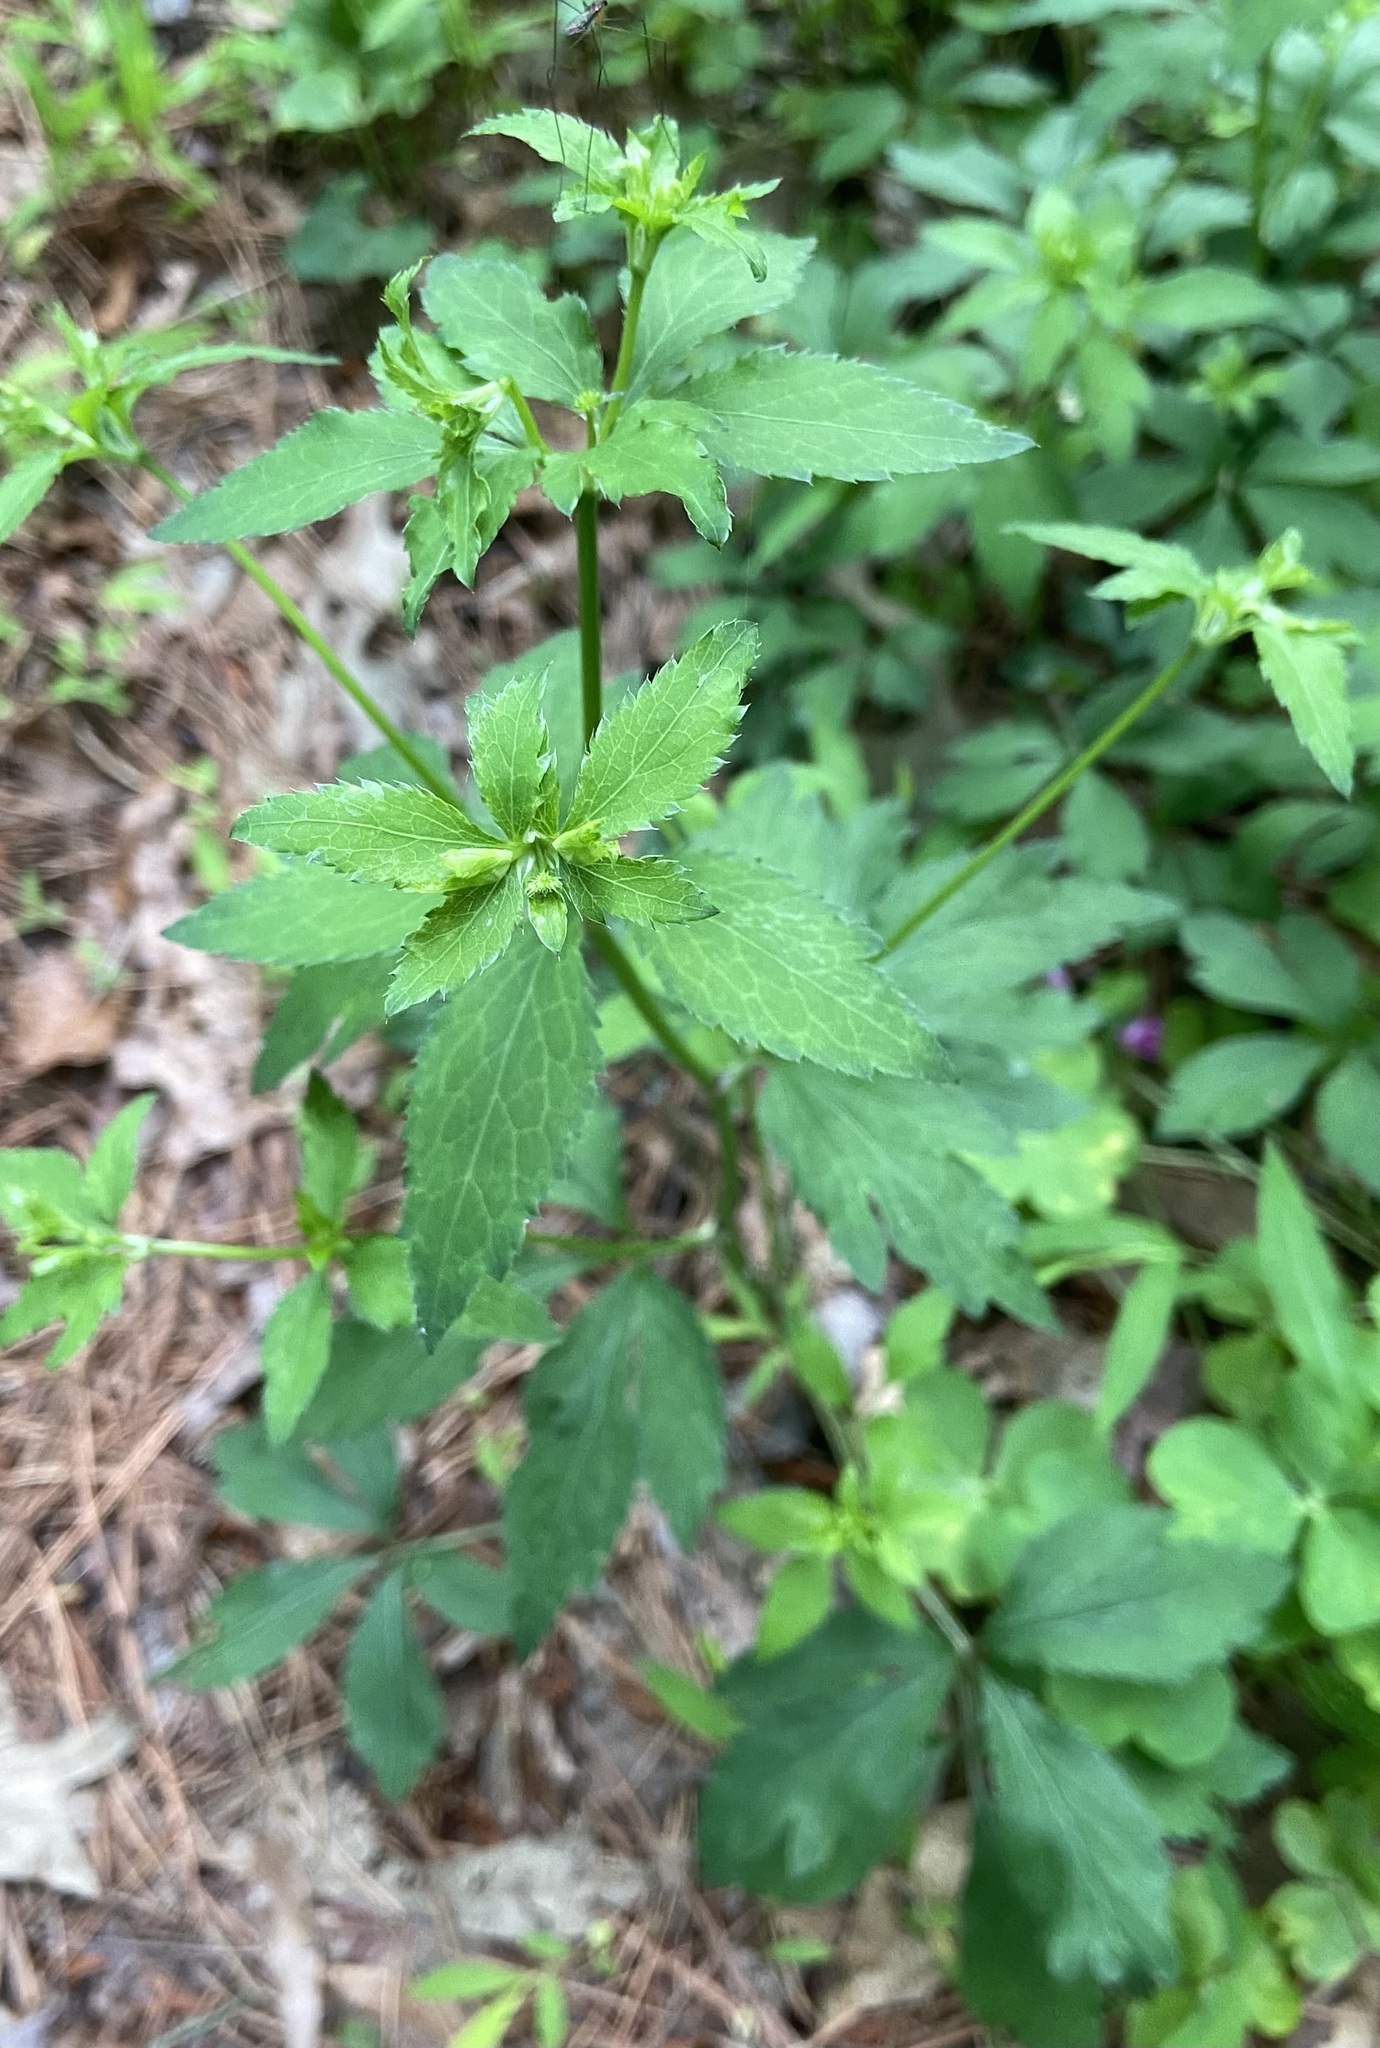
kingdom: Plantae
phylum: Tracheophyta
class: Magnoliopsida
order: Apiales
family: Apiaceae
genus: Sanicula
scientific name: Sanicula canadensis
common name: Canada sanicle
